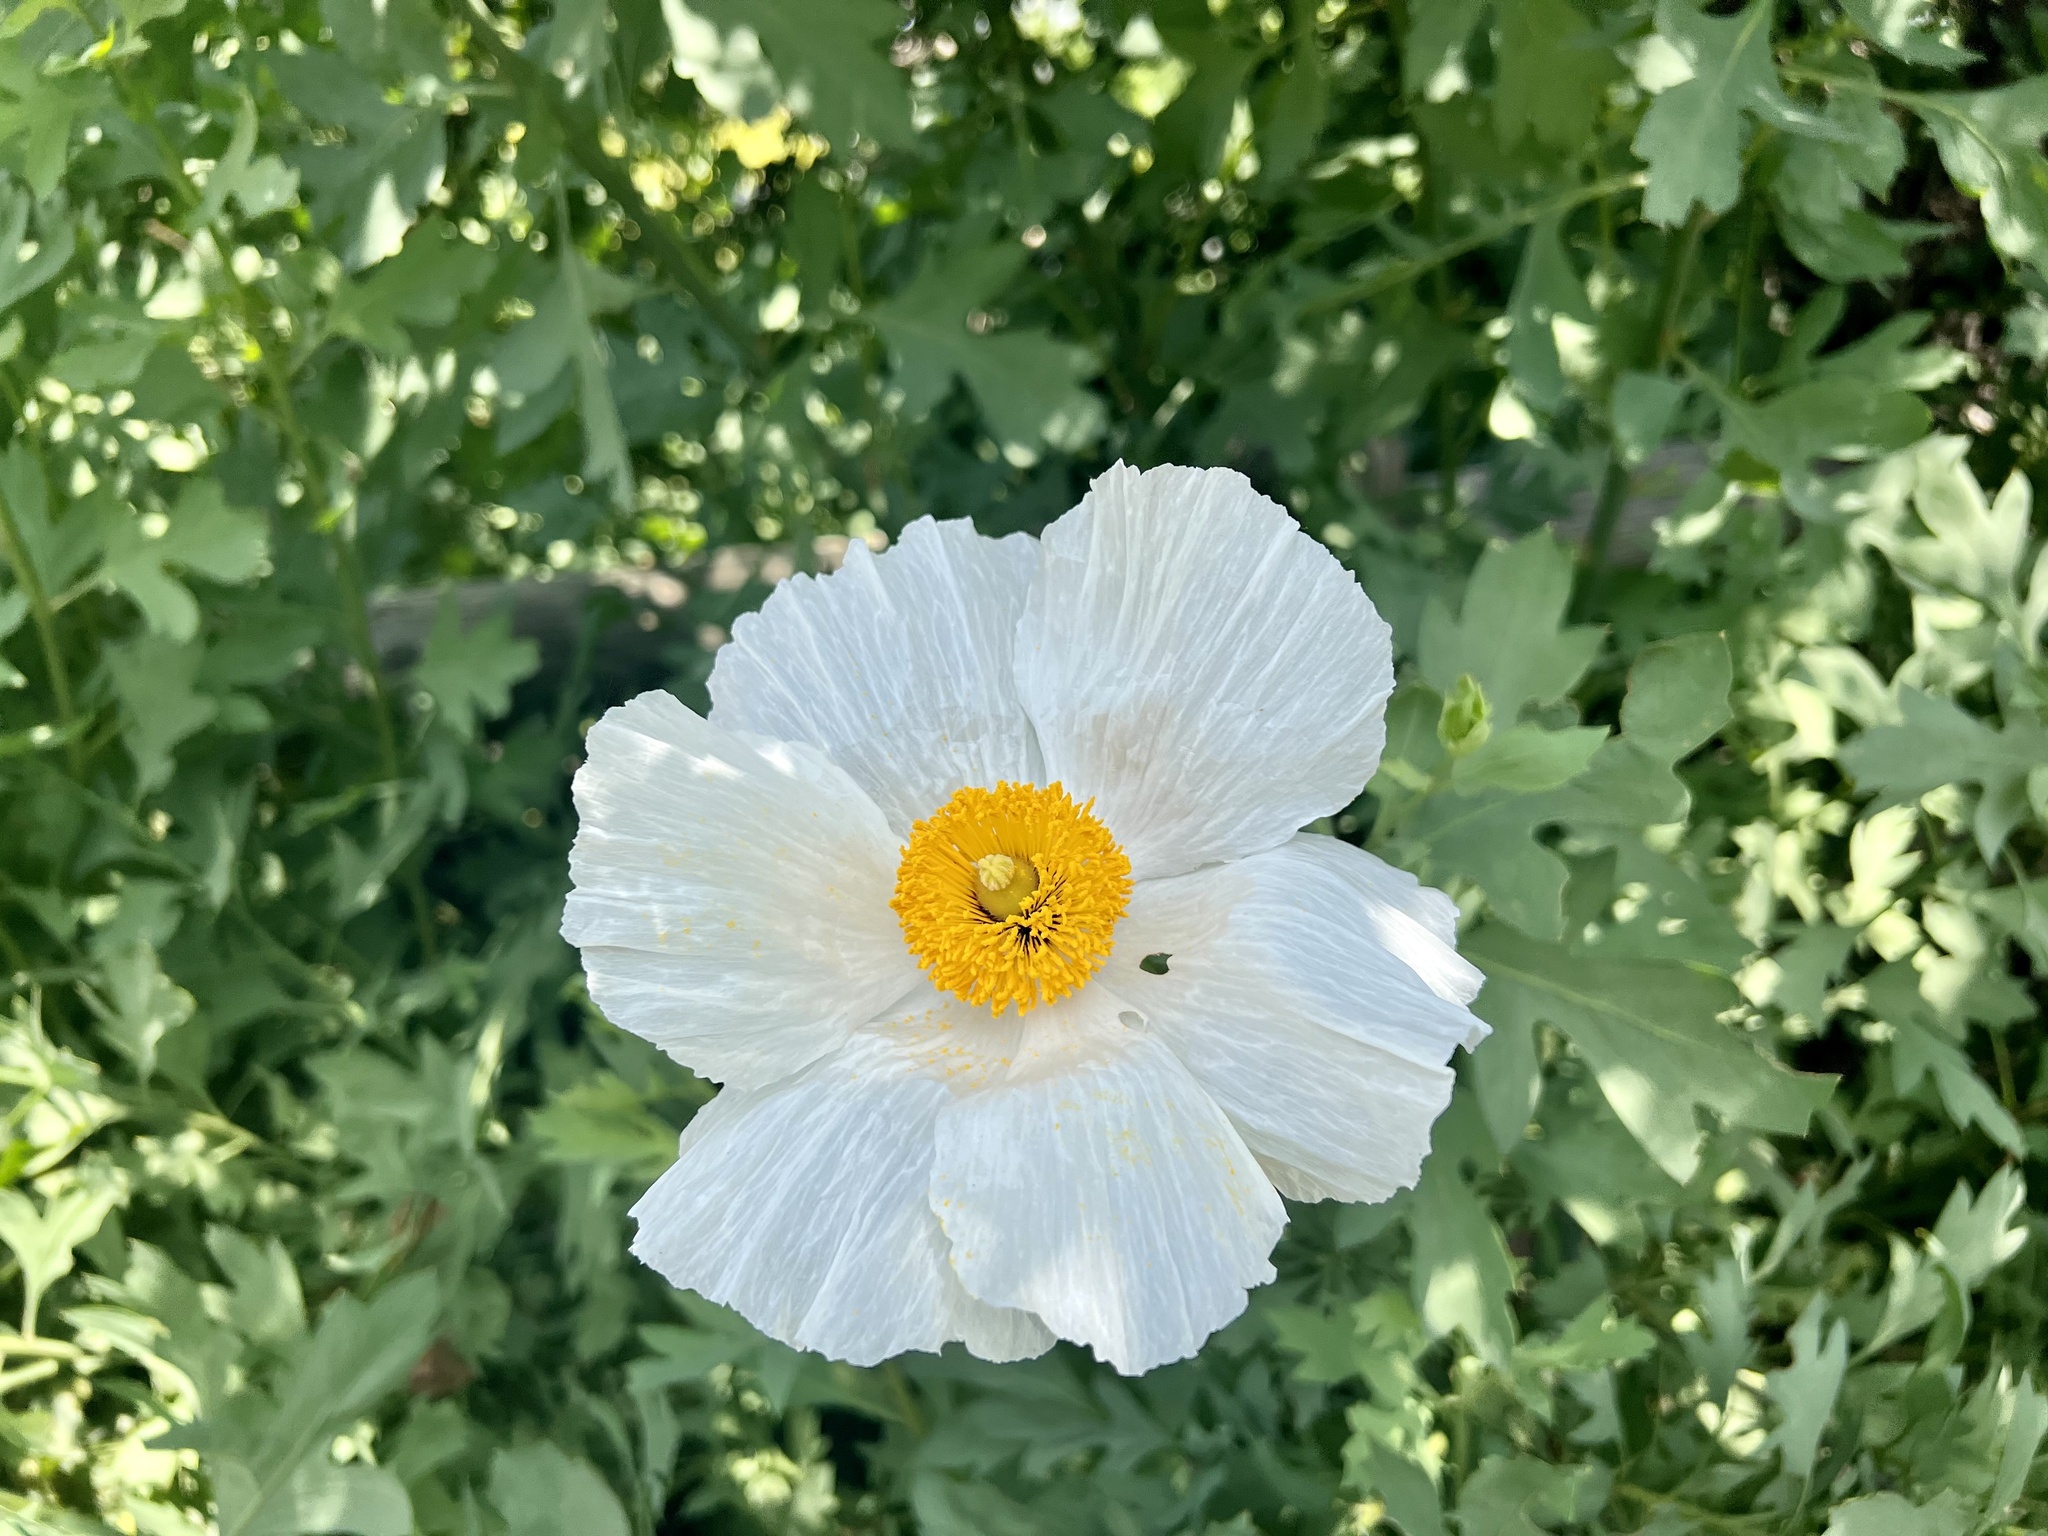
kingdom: Plantae
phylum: Tracheophyta
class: Magnoliopsida
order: Ranunculales
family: Papaveraceae
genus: Romneya
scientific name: Romneya coulteri
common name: California tree-poppy
